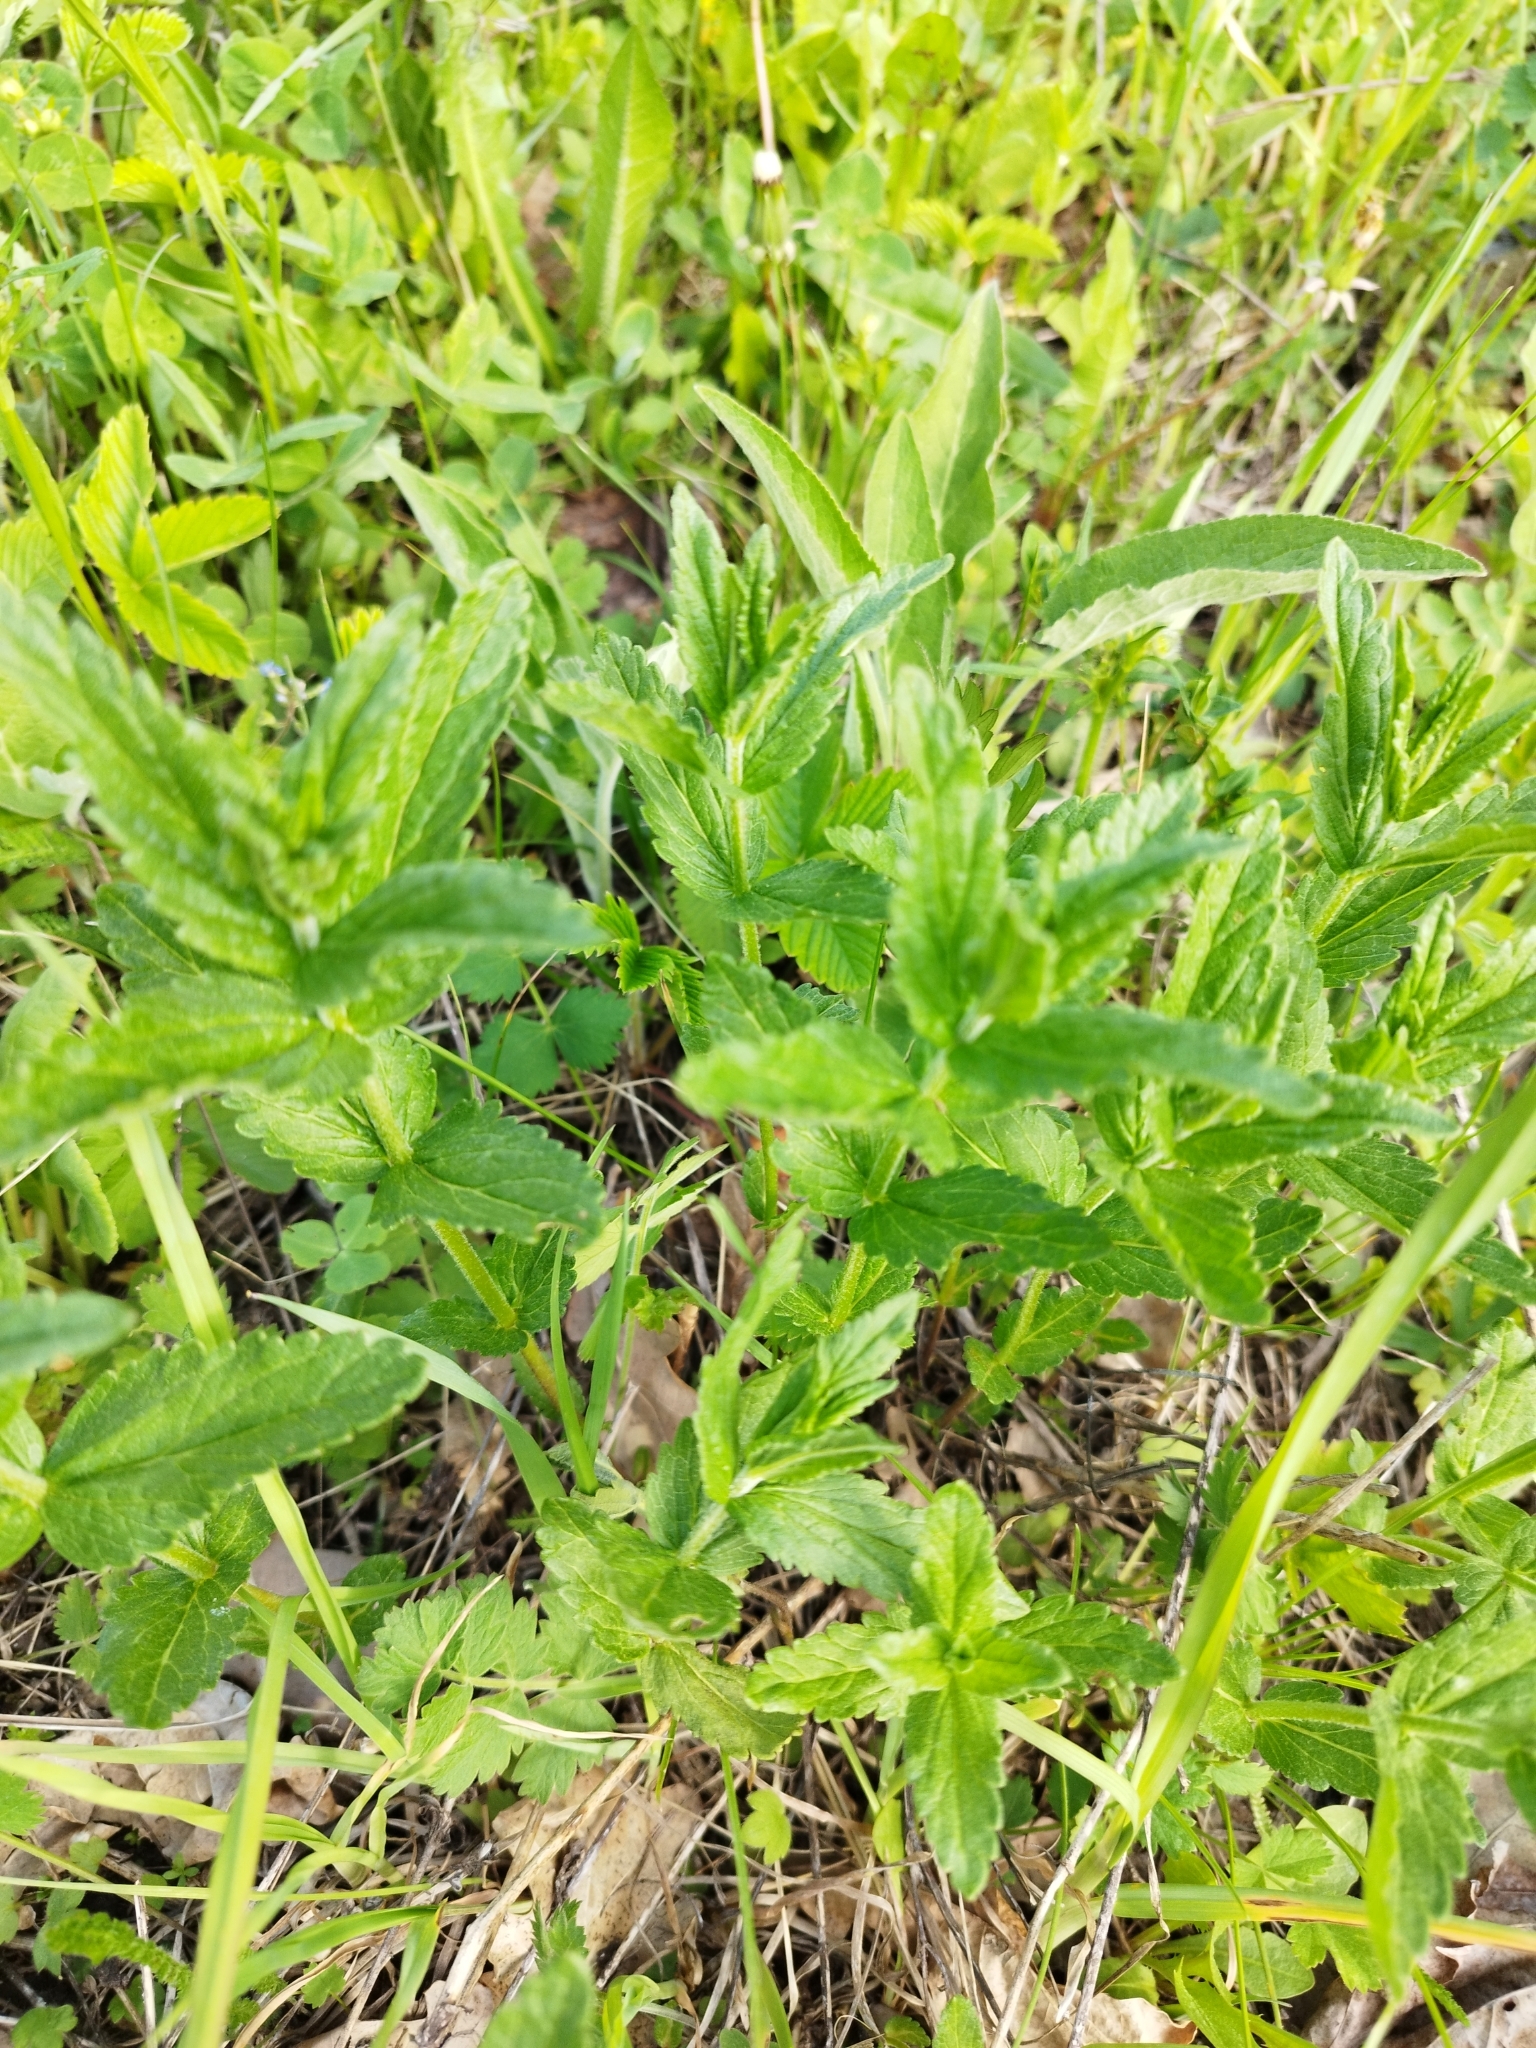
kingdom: Plantae
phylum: Tracheophyta
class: Magnoliopsida
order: Lamiales
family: Plantaginaceae
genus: Veronica
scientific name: Veronica teucrium
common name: Large speedwell
